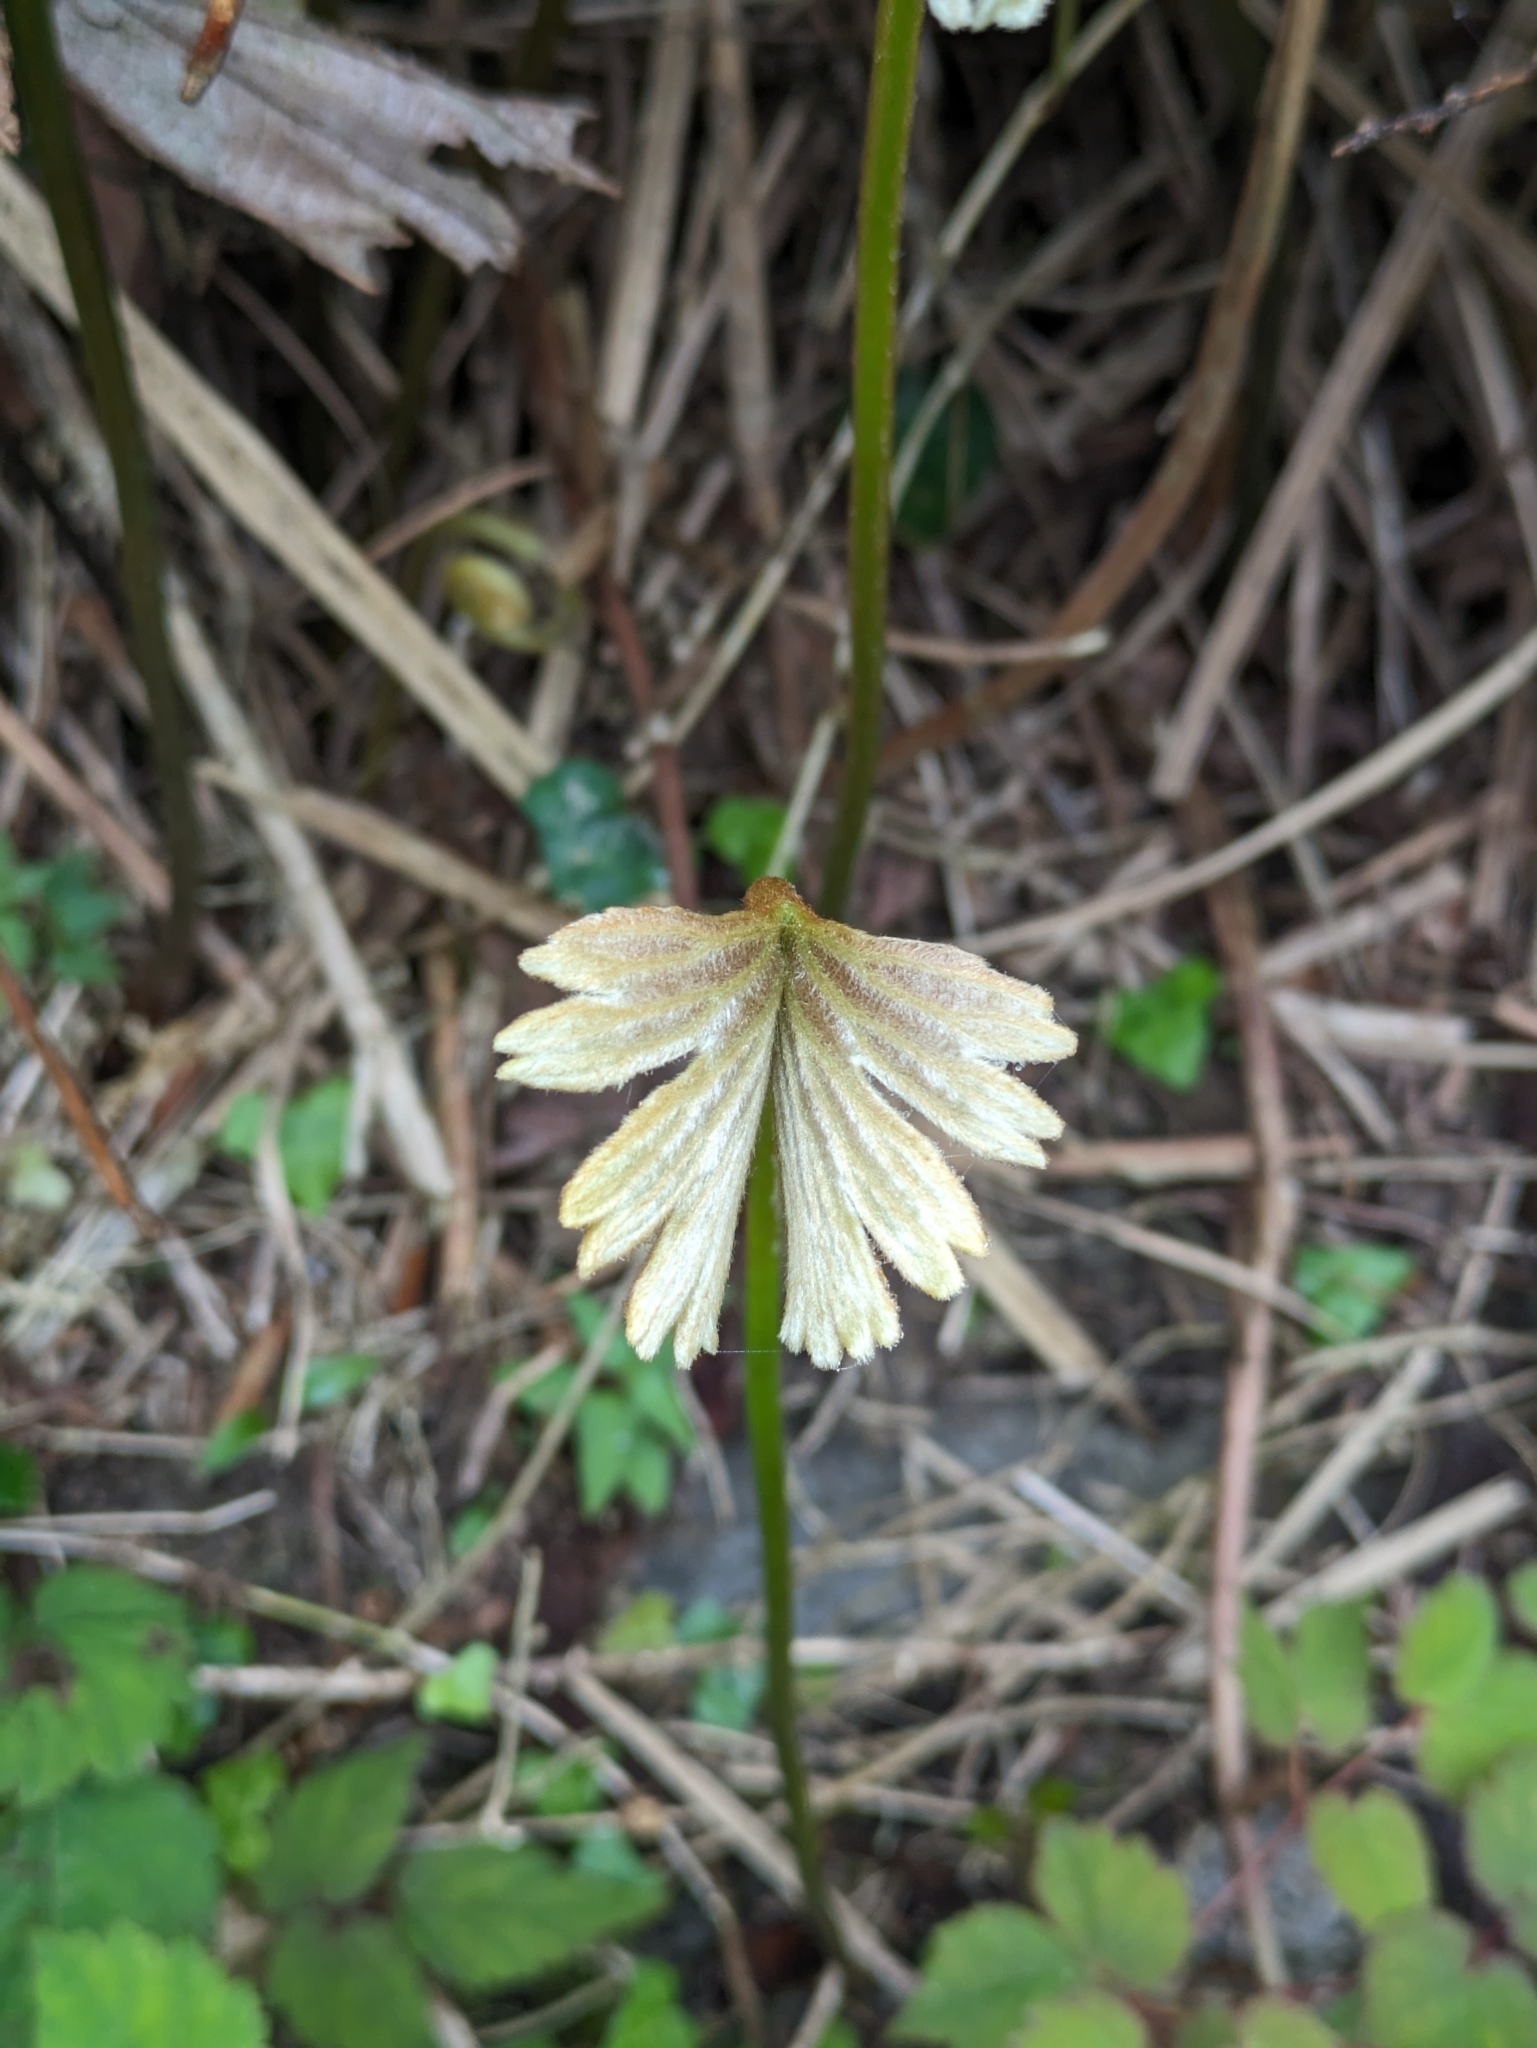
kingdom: Plantae
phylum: Tracheophyta
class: Polypodiopsida
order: Gleicheniales
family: Dipteridaceae
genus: Dipteris
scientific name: Dipteris conjugata
